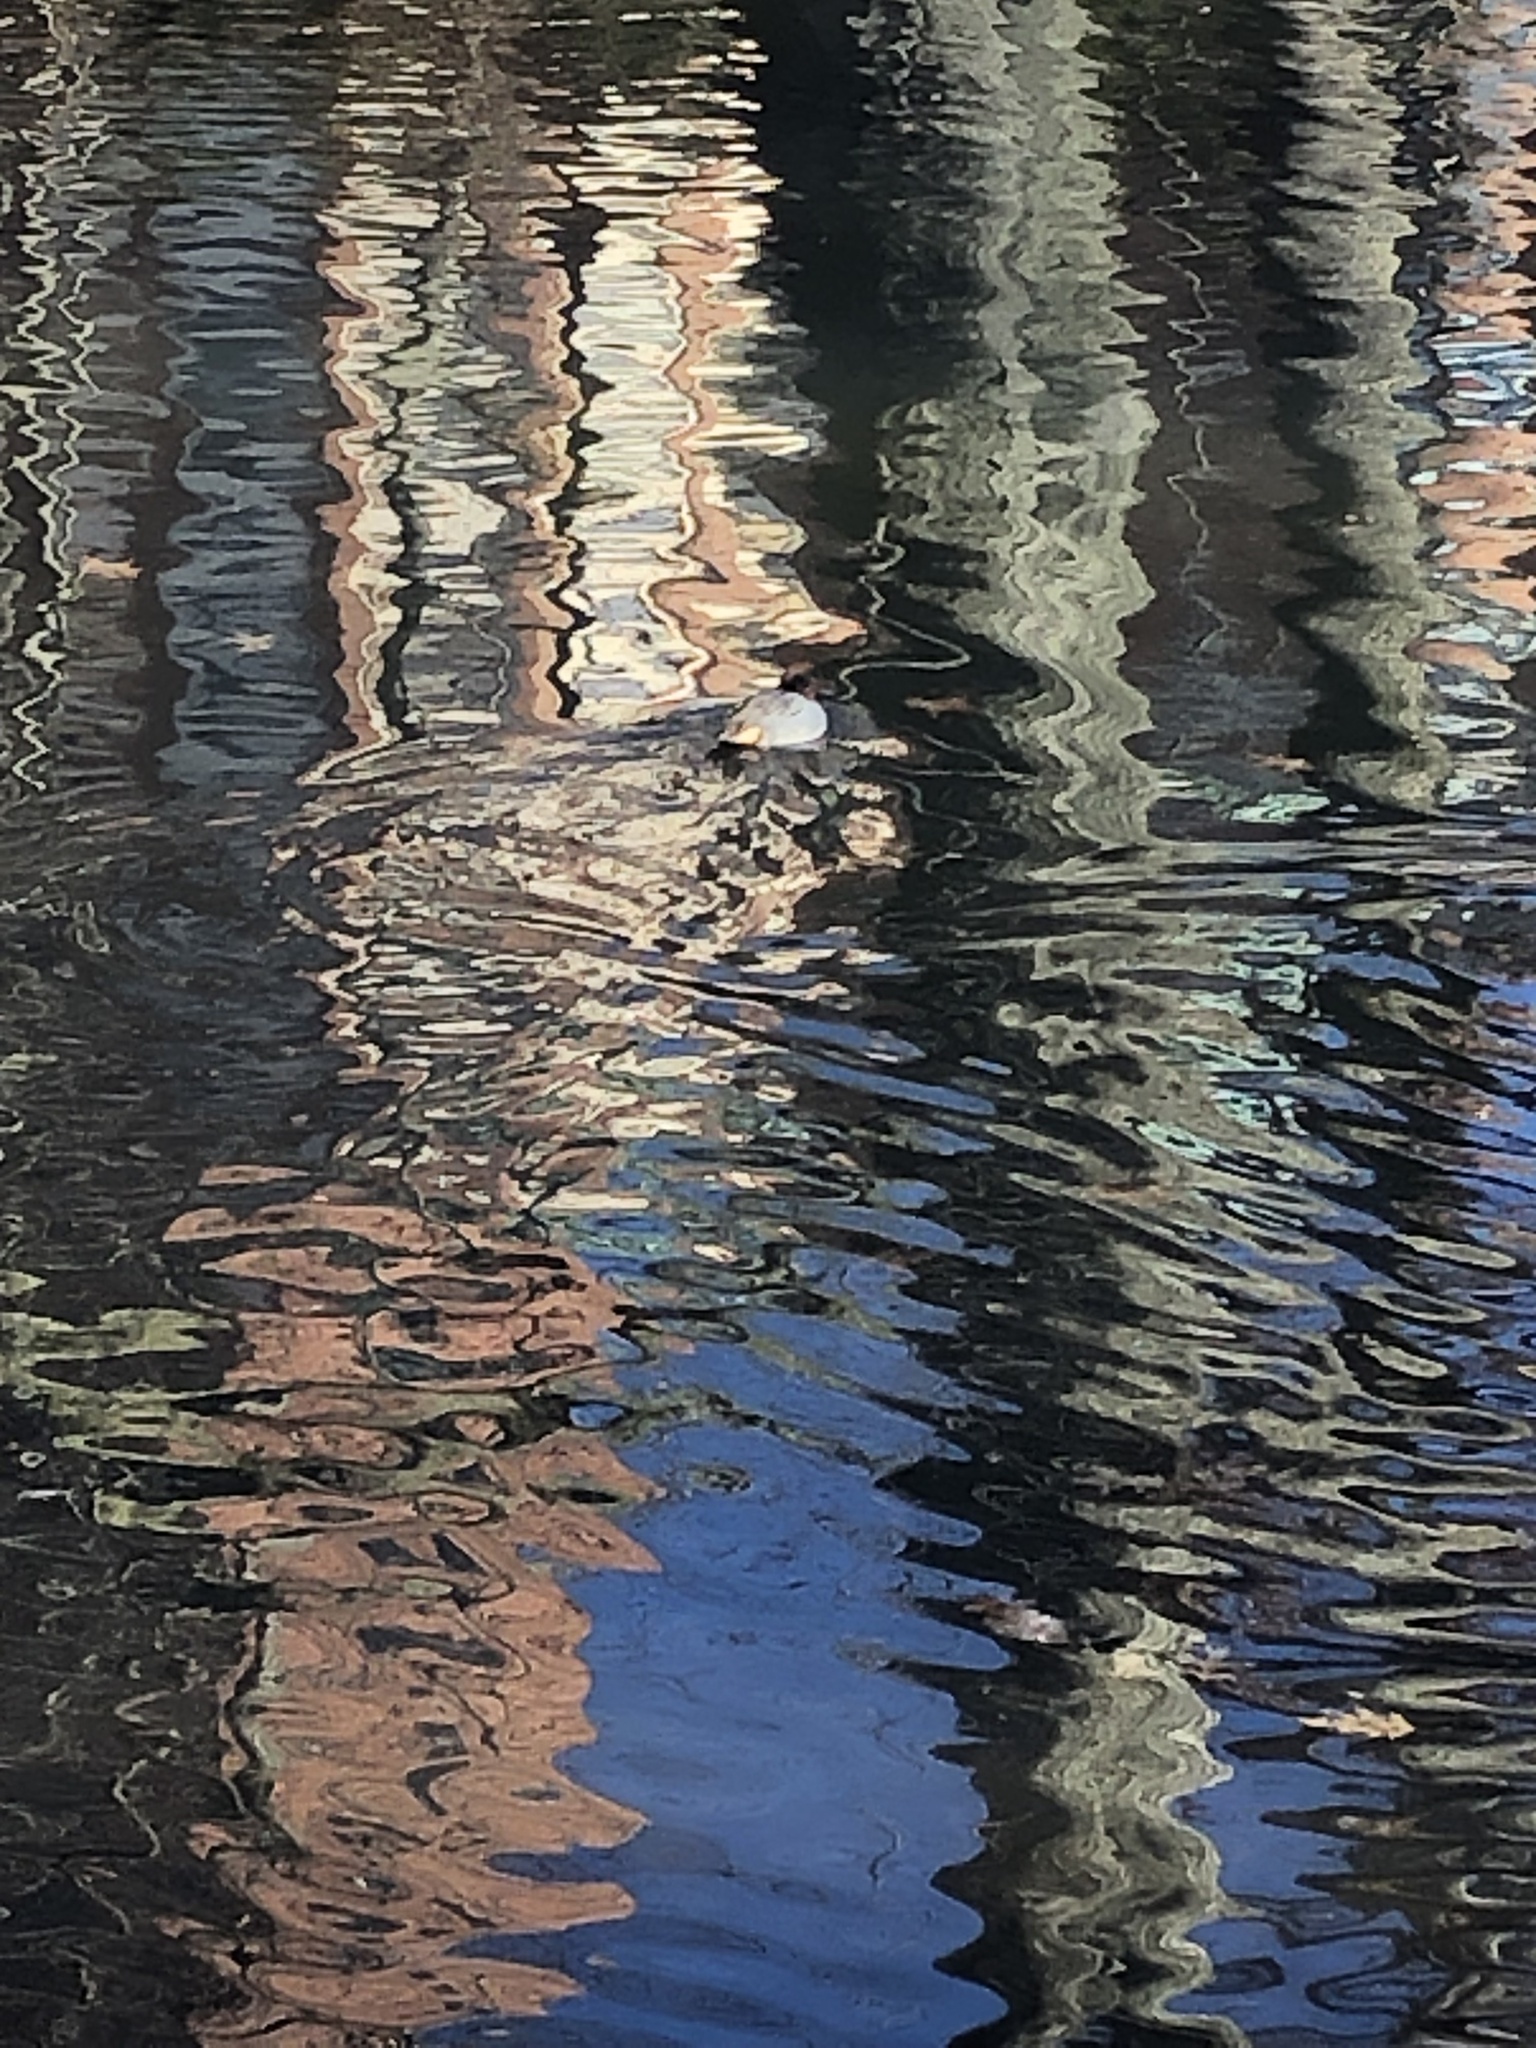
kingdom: Animalia
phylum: Chordata
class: Aves
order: Anseriformes
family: Anatidae
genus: Anas
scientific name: Anas crecca
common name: Eurasian teal
